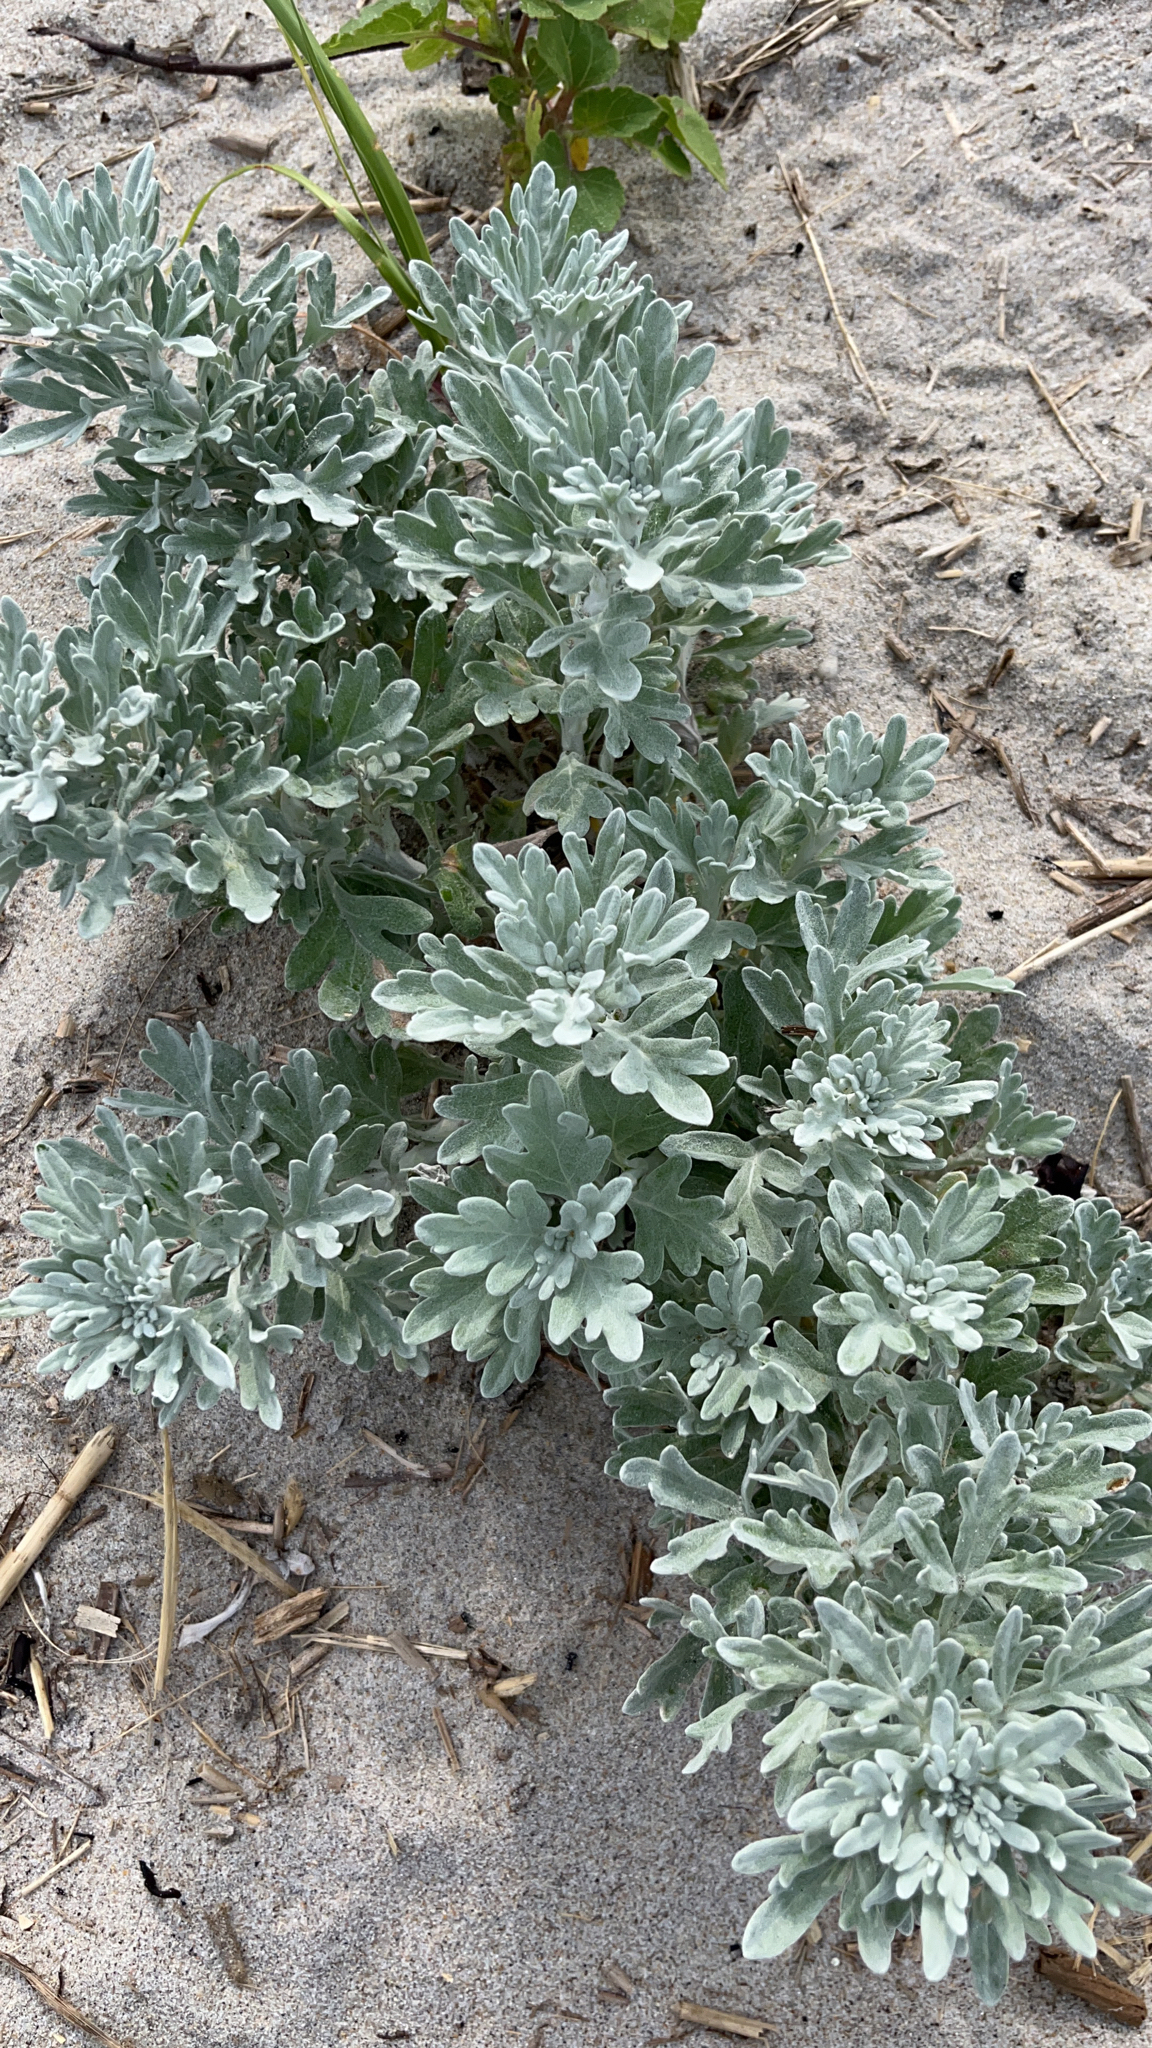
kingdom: Plantae
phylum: Tracheophyta
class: Magnoliopsida
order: Asterales
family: Asteraceae
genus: Artemisia
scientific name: Artemisia stelleriana
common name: Beach wormwood
